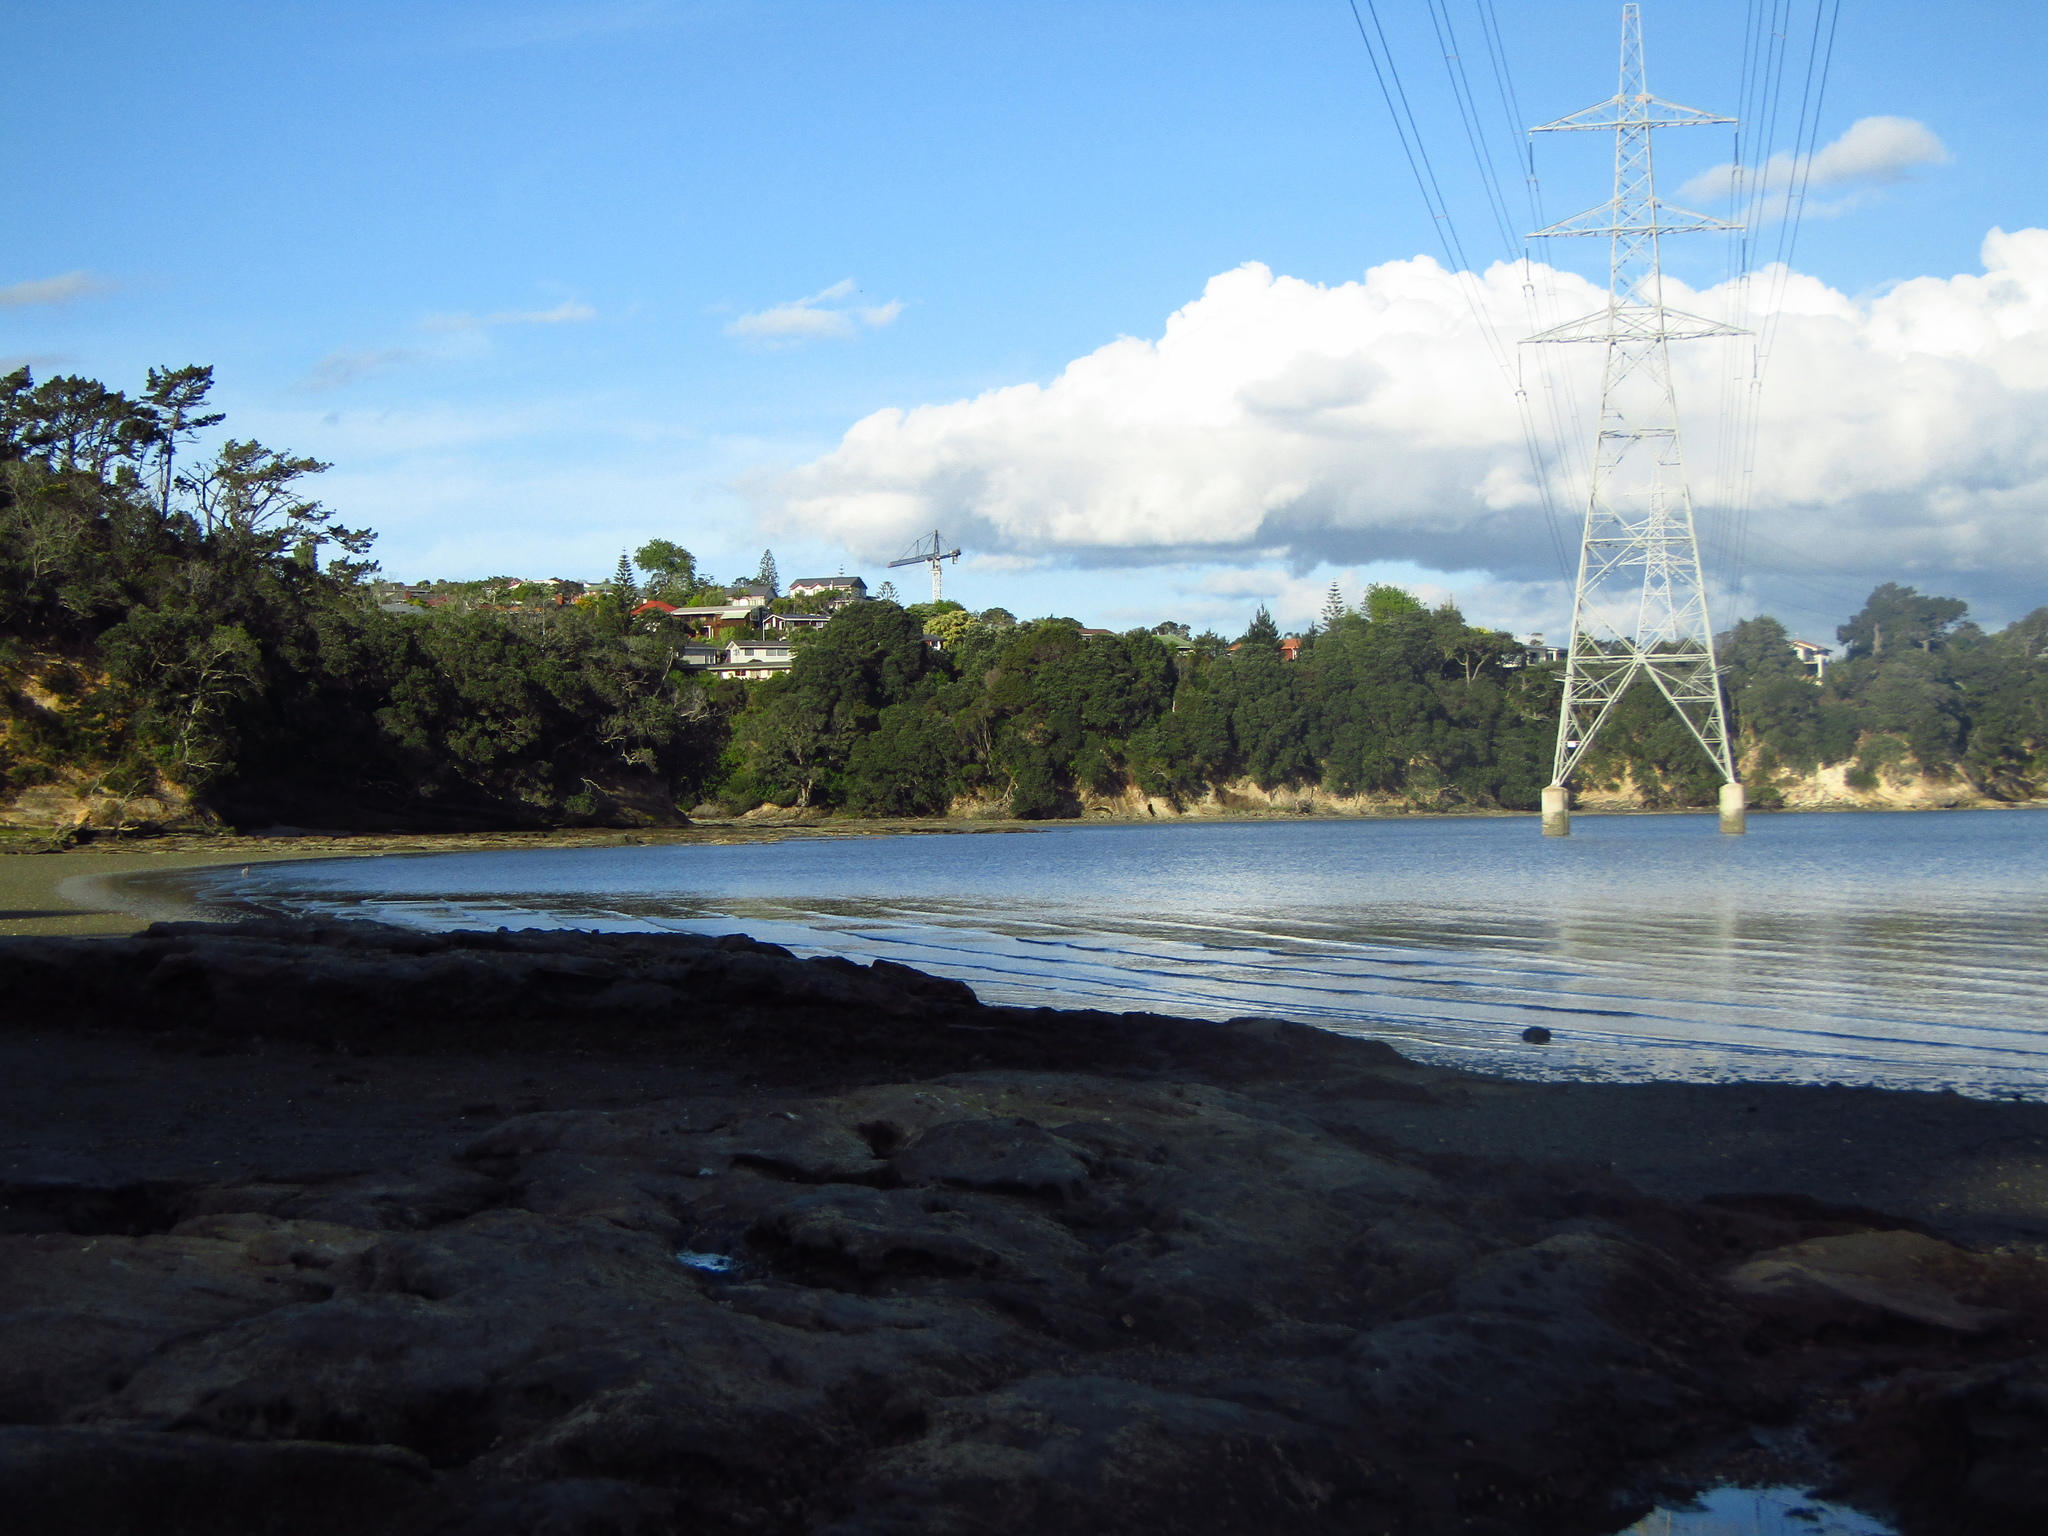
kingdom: Animalia
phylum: Mollusca
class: Gastropoda
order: Ellobiida
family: Ellobiidae
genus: Leuconopsis
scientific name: Leuconopsis obsoleta
